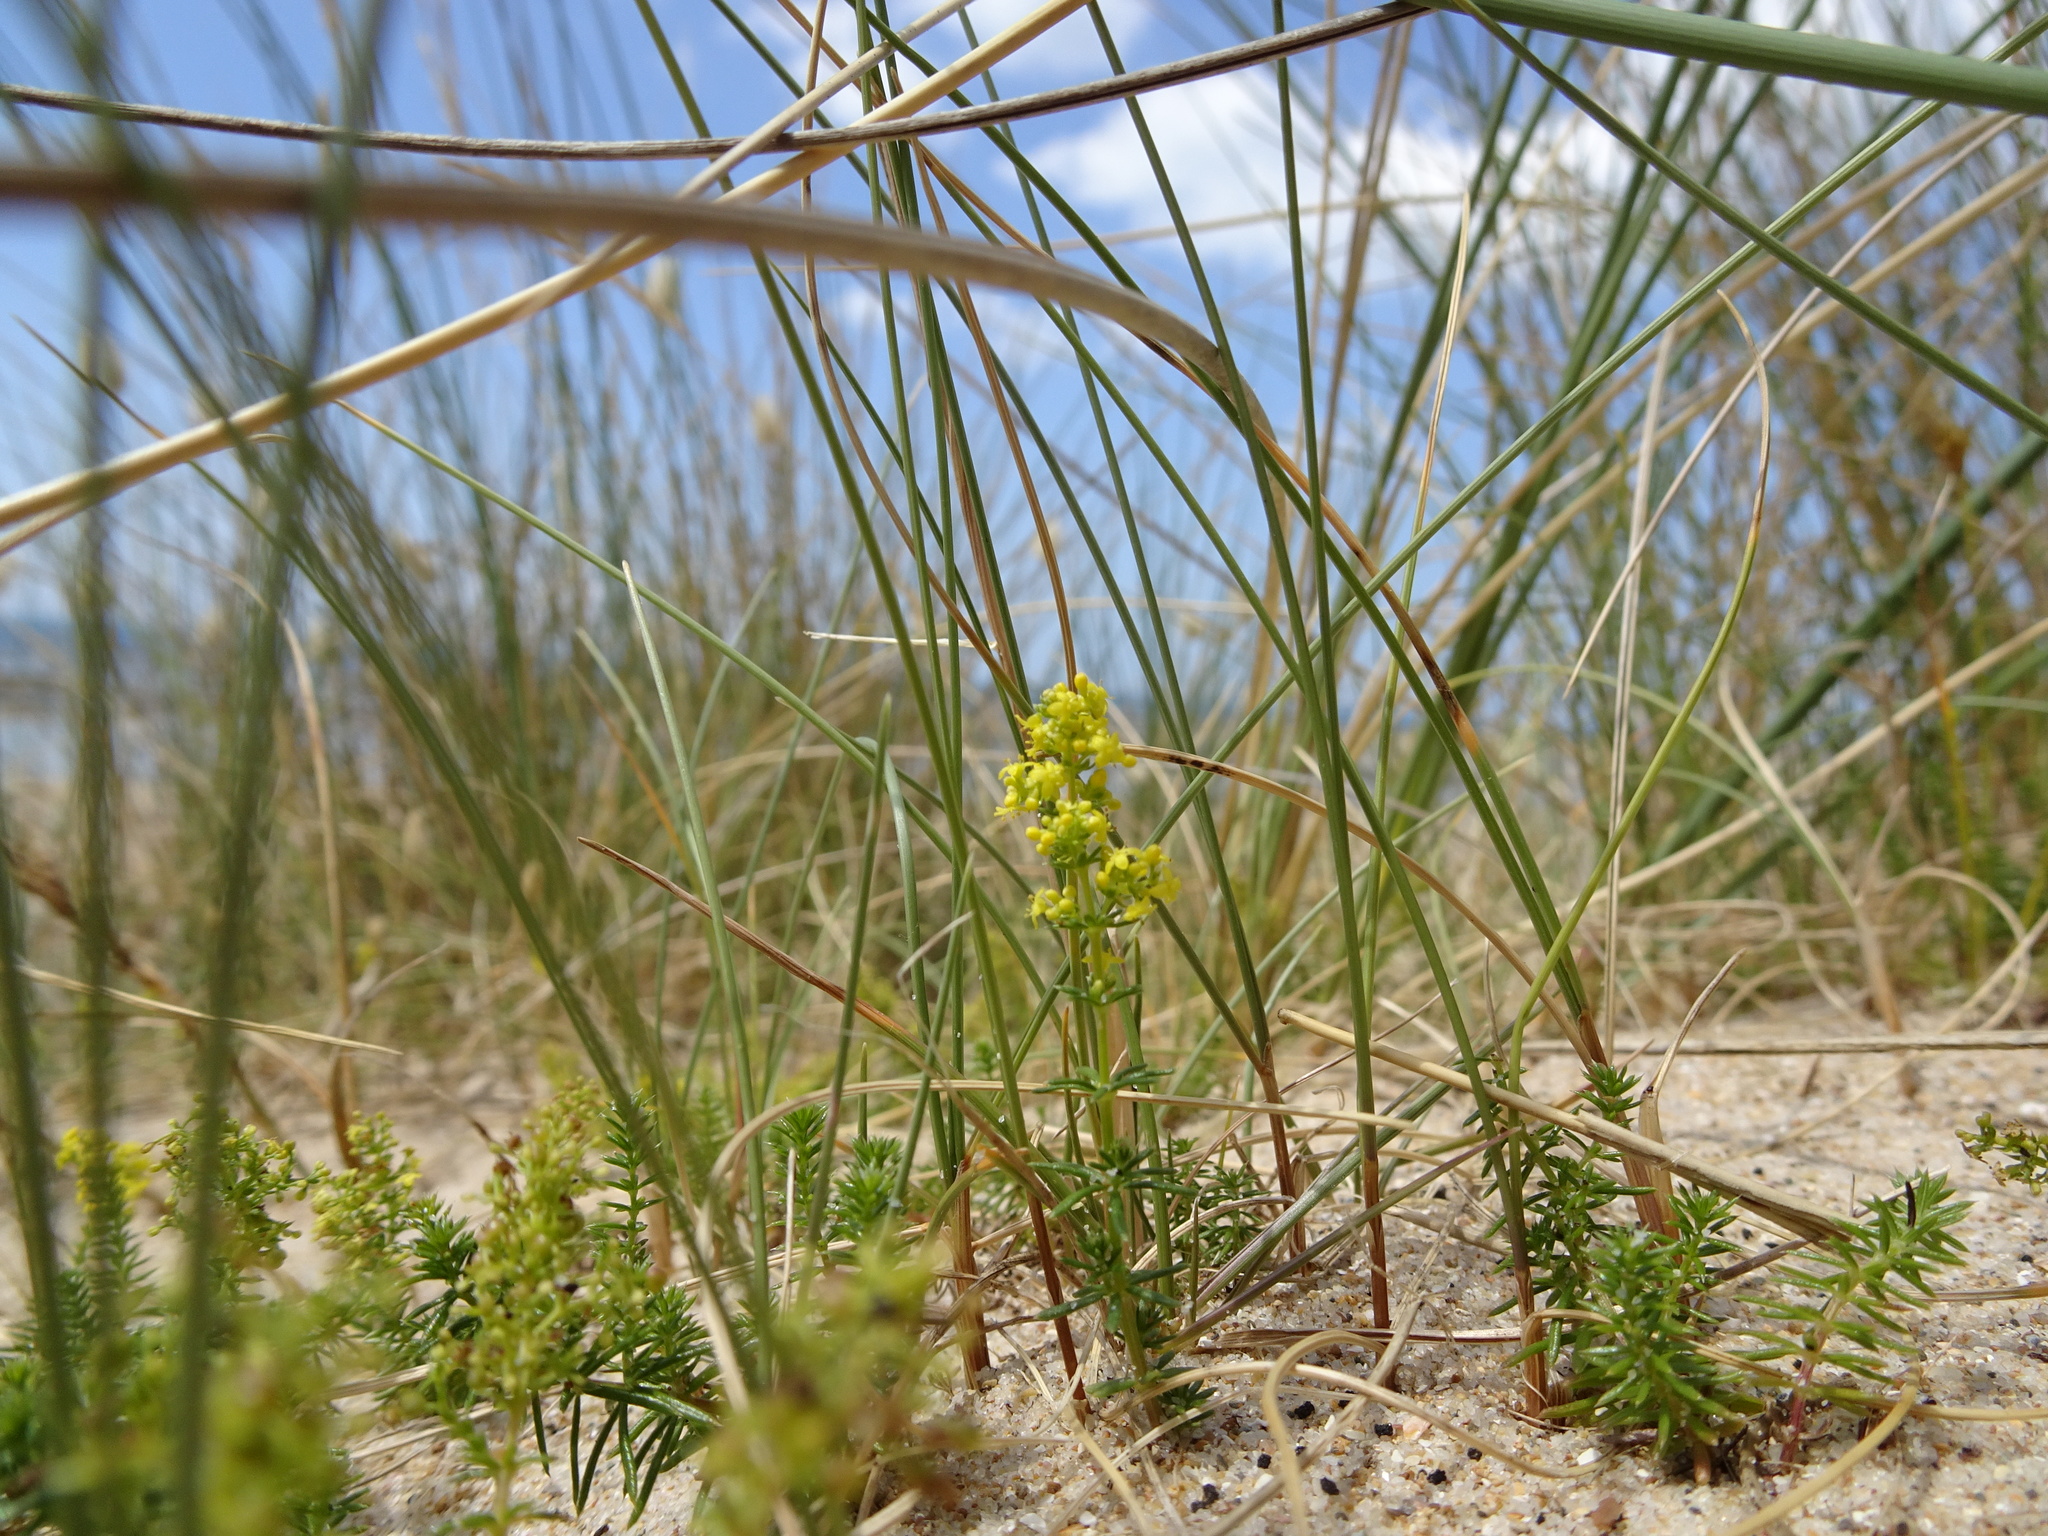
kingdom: Plantae
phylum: Tracheophyta
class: Magnoliopsida
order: Gentianales
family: Rubiaceae
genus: Galium
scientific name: Galium verum
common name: Lady's bedstraw
